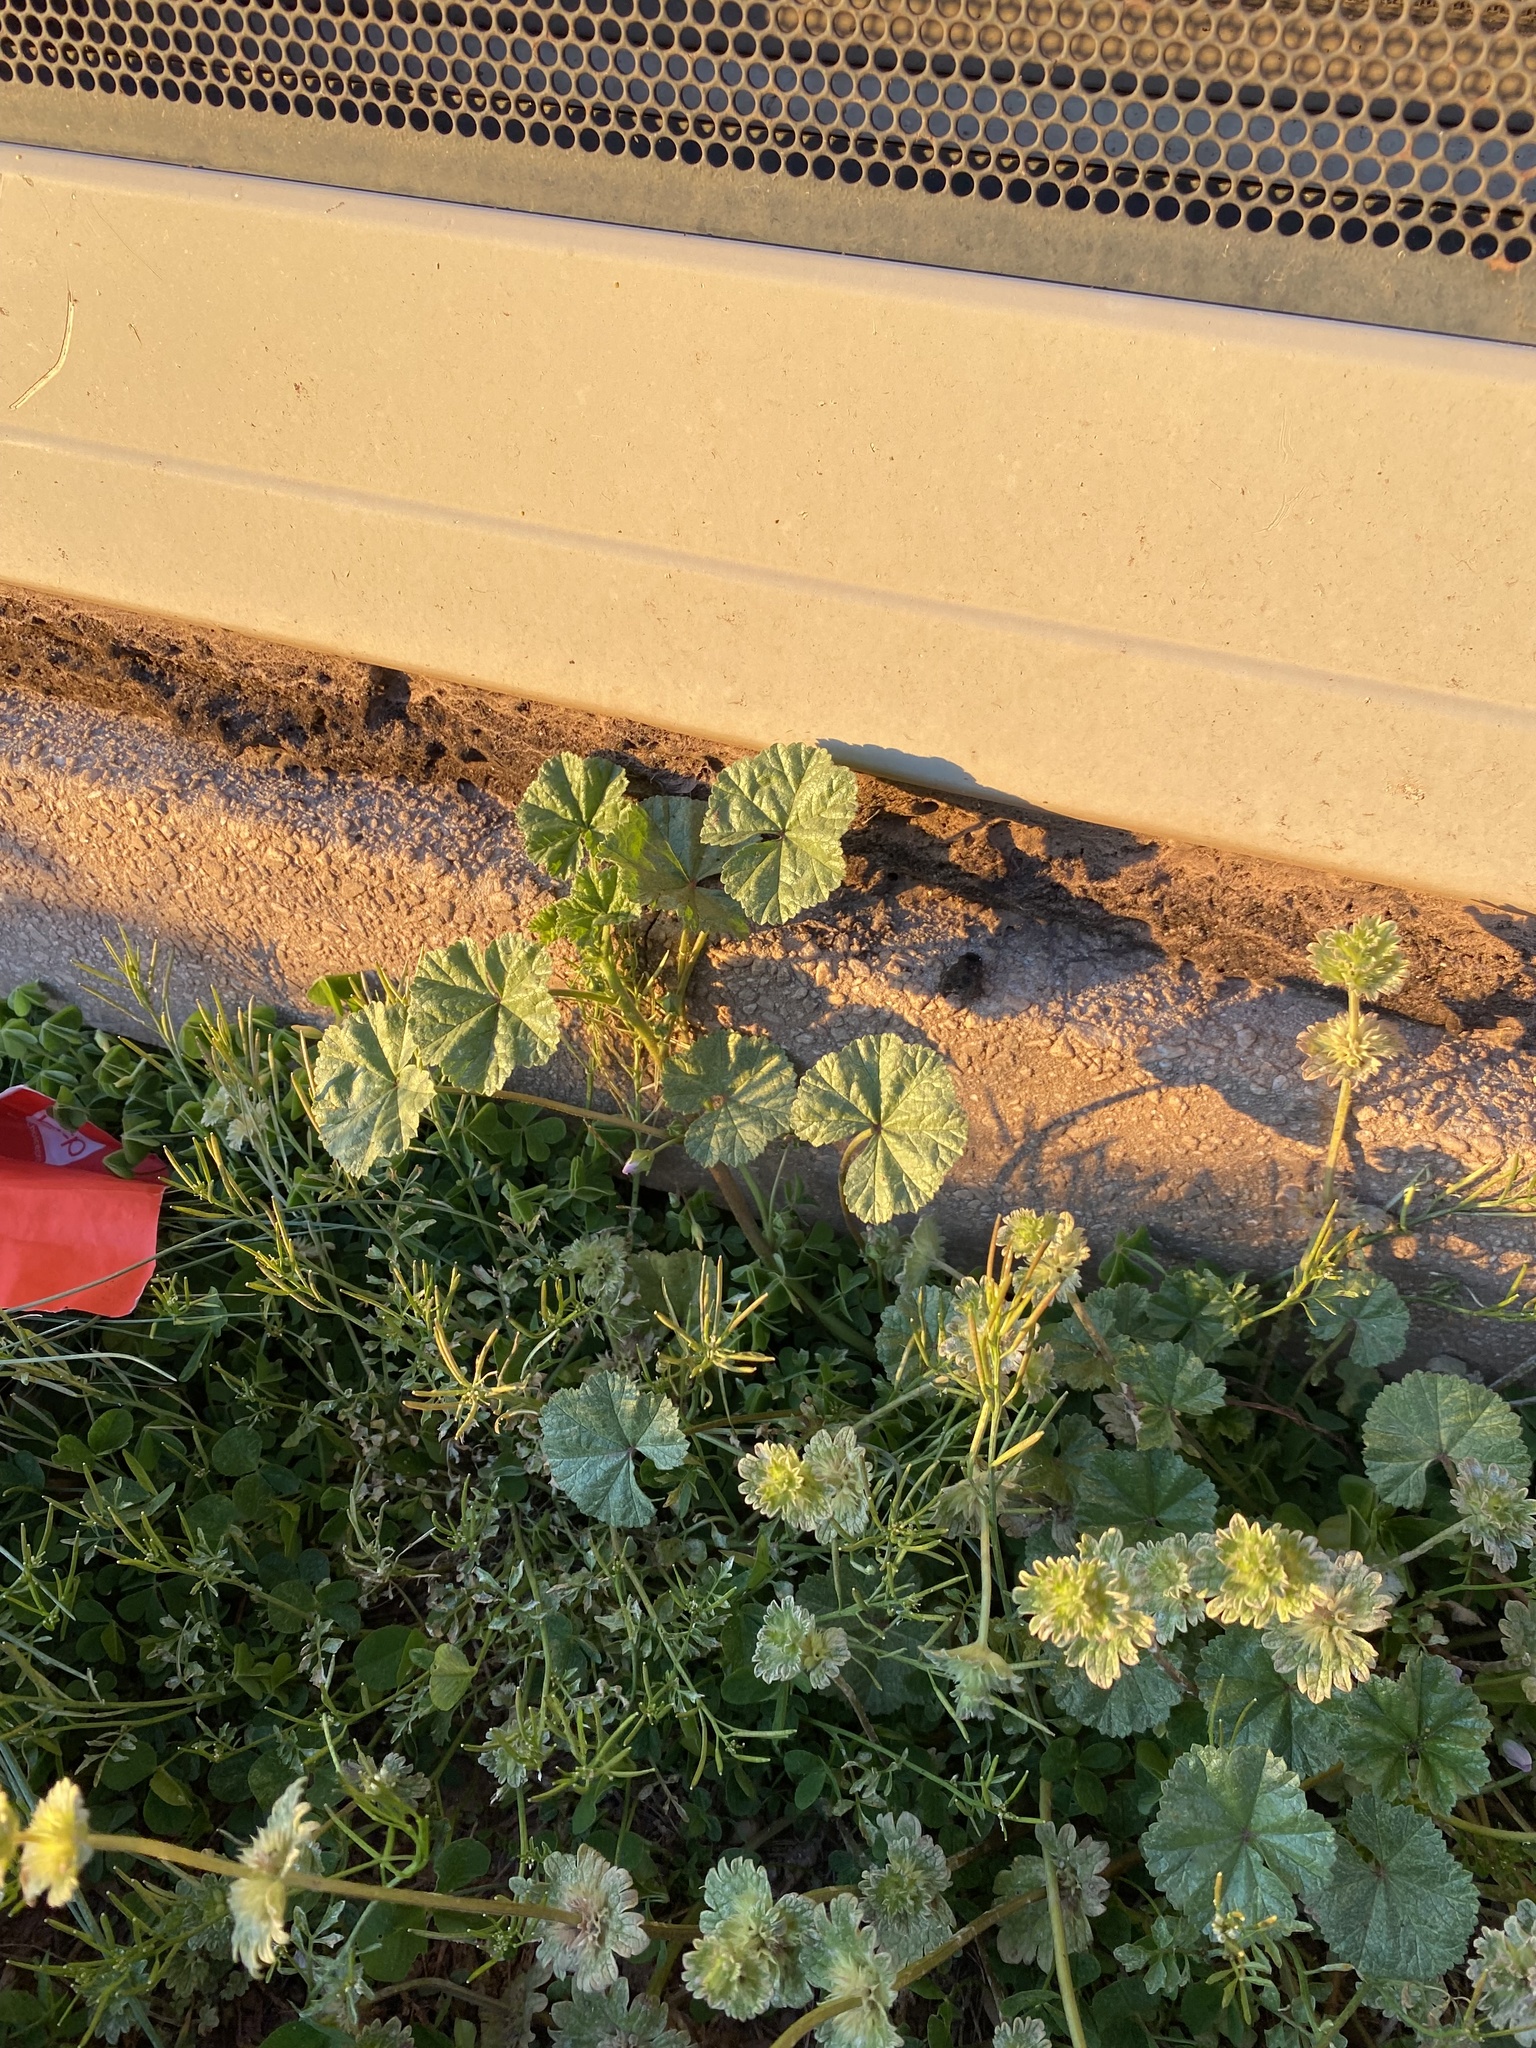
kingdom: Plantae
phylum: Tracheophyta
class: Magnoliopsida
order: Malvales
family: Malvaceae
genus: Malva
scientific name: Malva neglecta
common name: Common mallow
